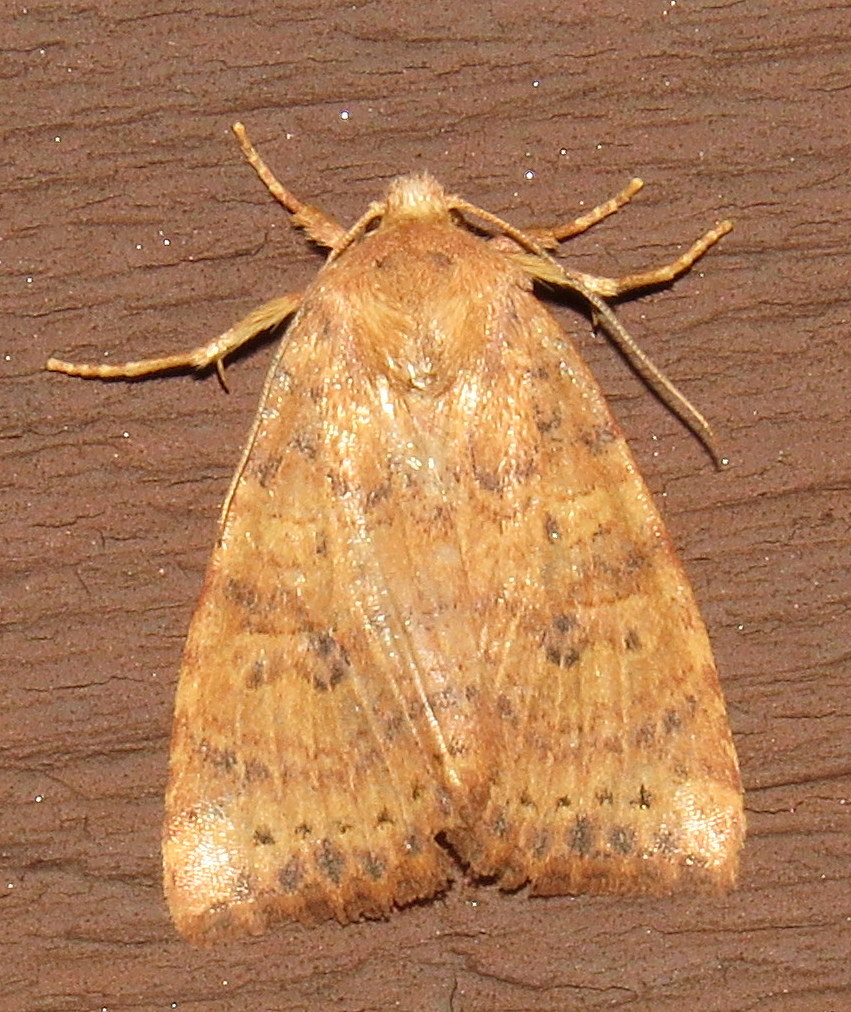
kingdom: Animalia
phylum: Arthropoda
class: Insecta
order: Lepidoptera
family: Noctuidae
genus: Anathix
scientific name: Anathix ralla
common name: Dotted sallow
